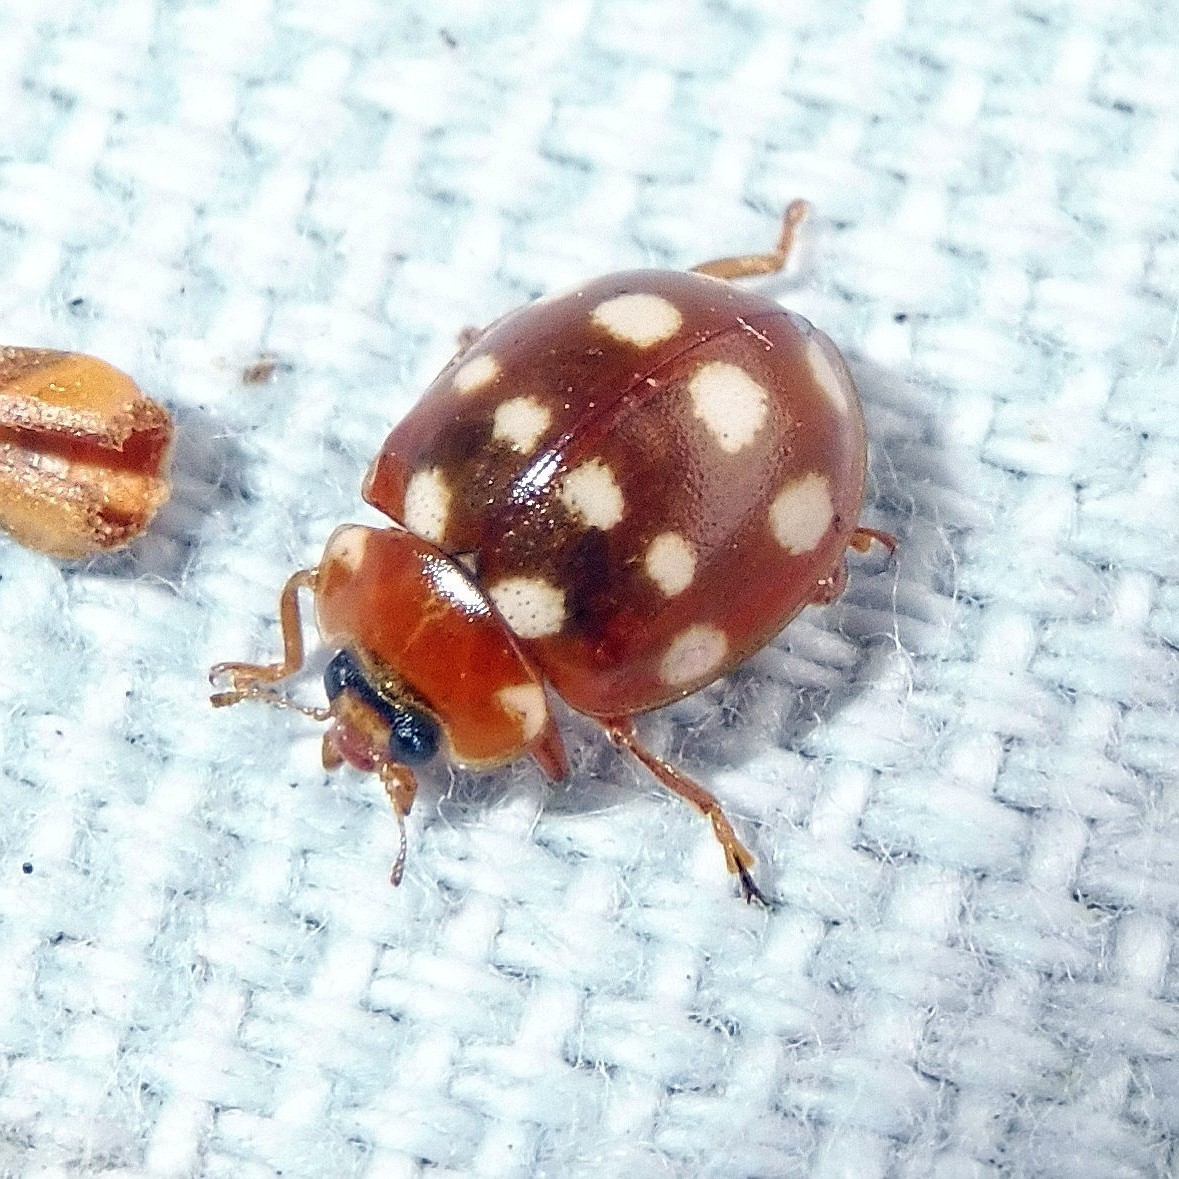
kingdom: Animalia
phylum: Arthropoda
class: Insecta
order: Coleoptera
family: Coccinellidae
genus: Calvia
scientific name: Calvia quatuordecimguttata
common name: Cream-spot ladybird
